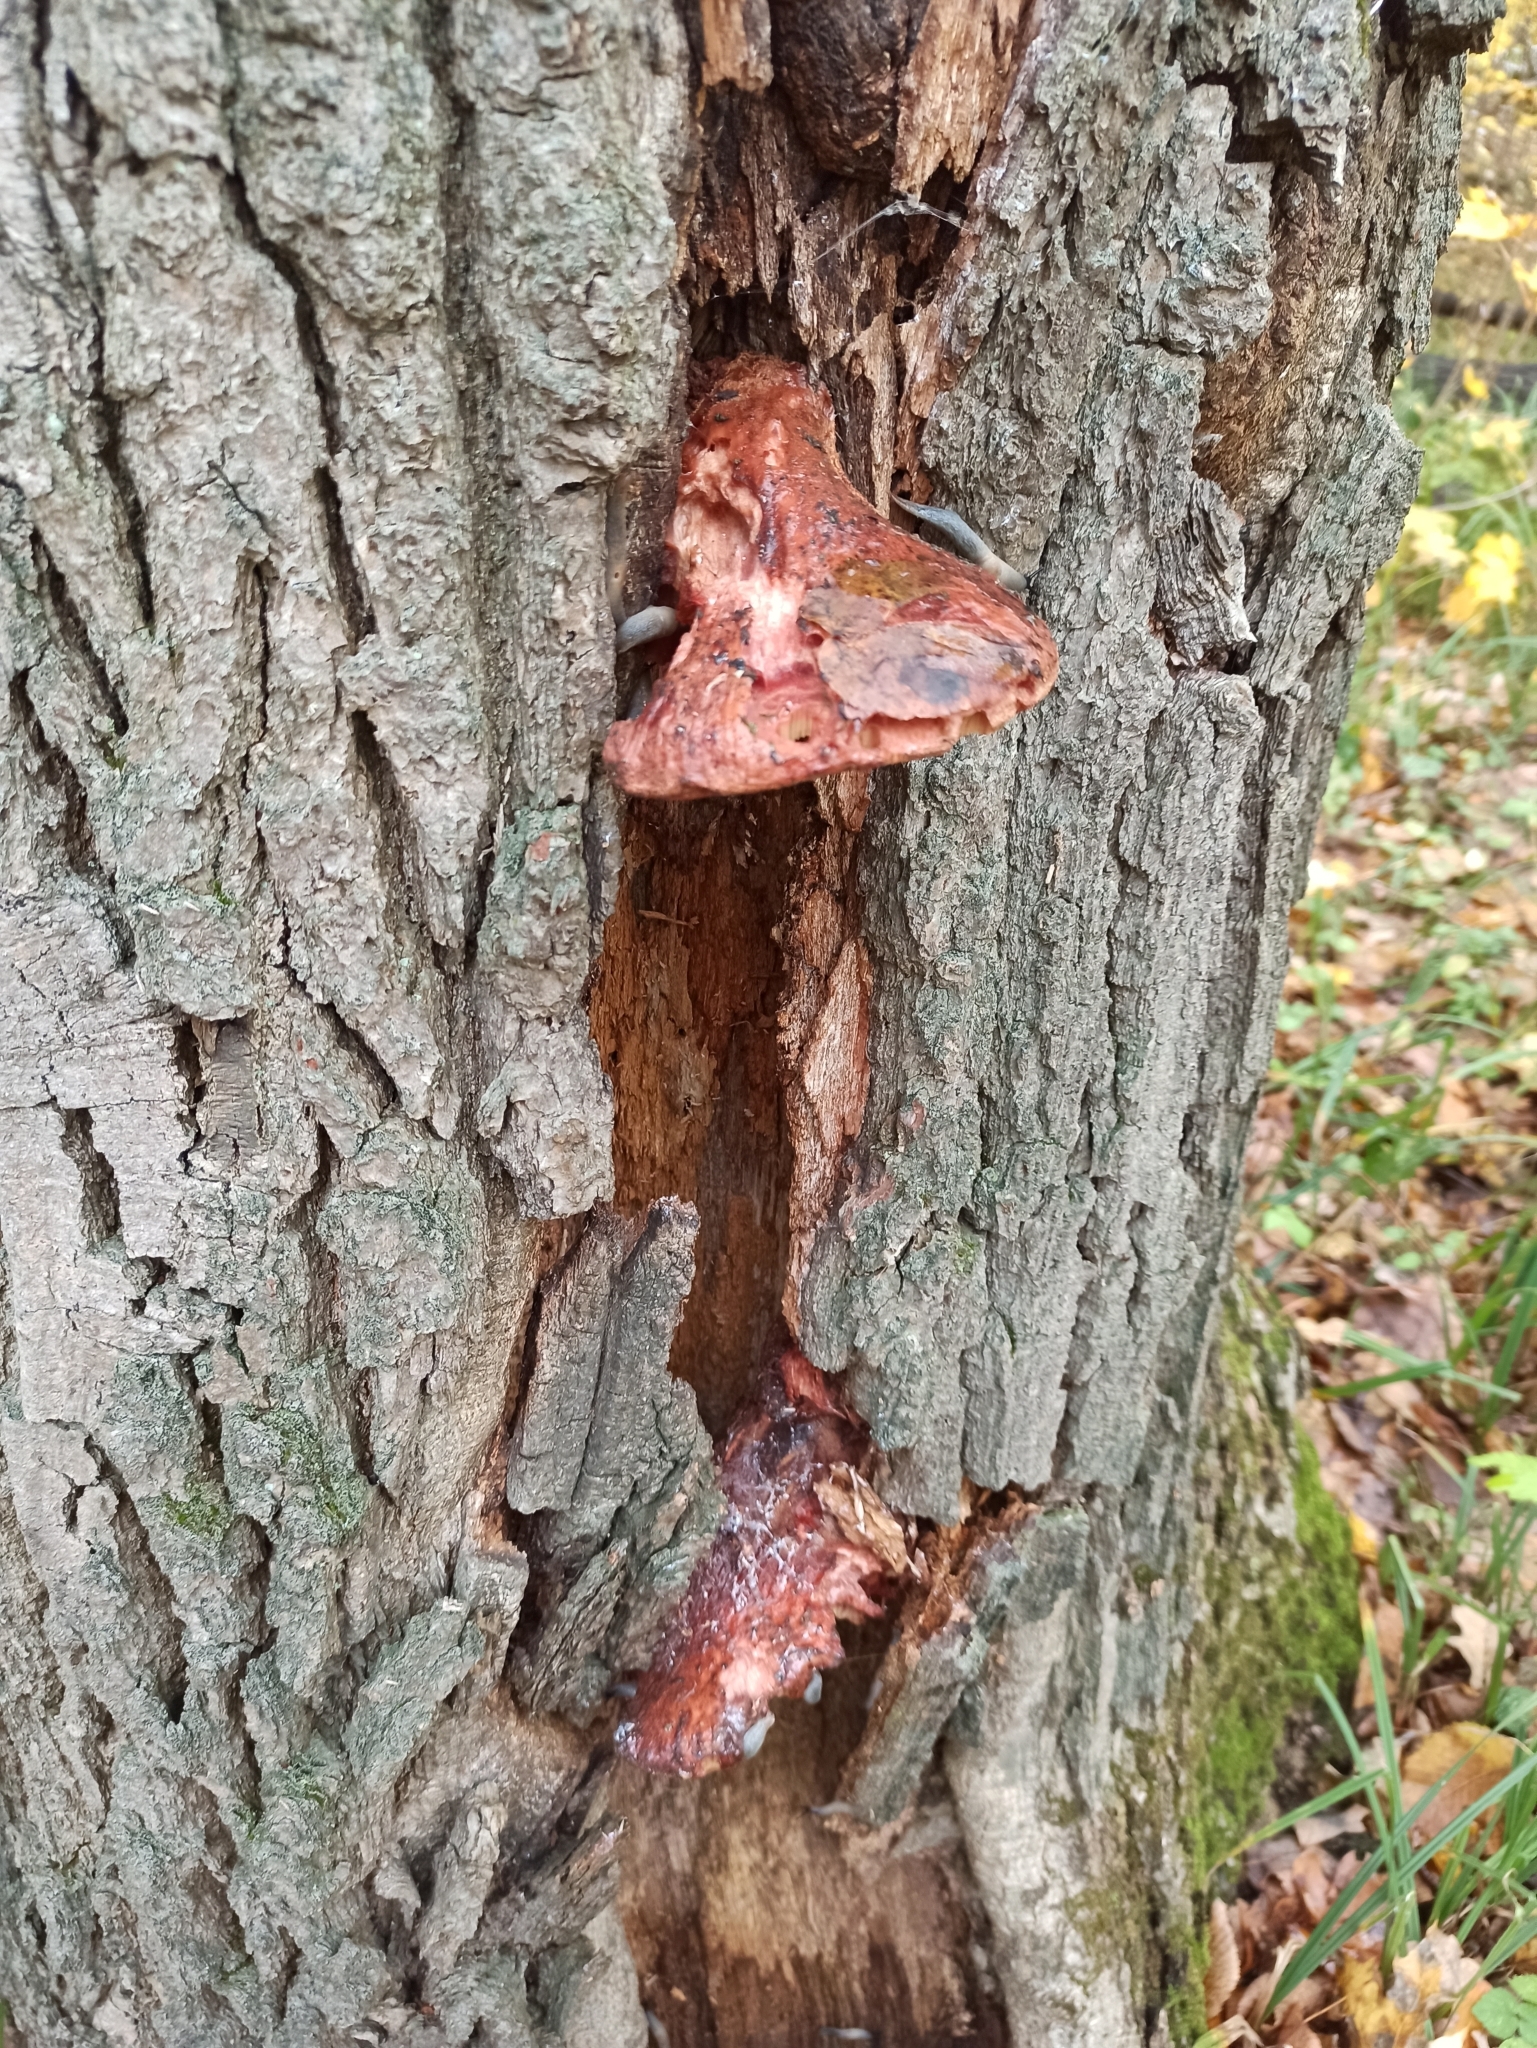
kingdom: Fungi
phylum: Basidiomycota
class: Agaricomycetes
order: Agaricales
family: Fistulinaceae
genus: Fistulina
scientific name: Fistulina hepatica
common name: Beef-steak fungus
